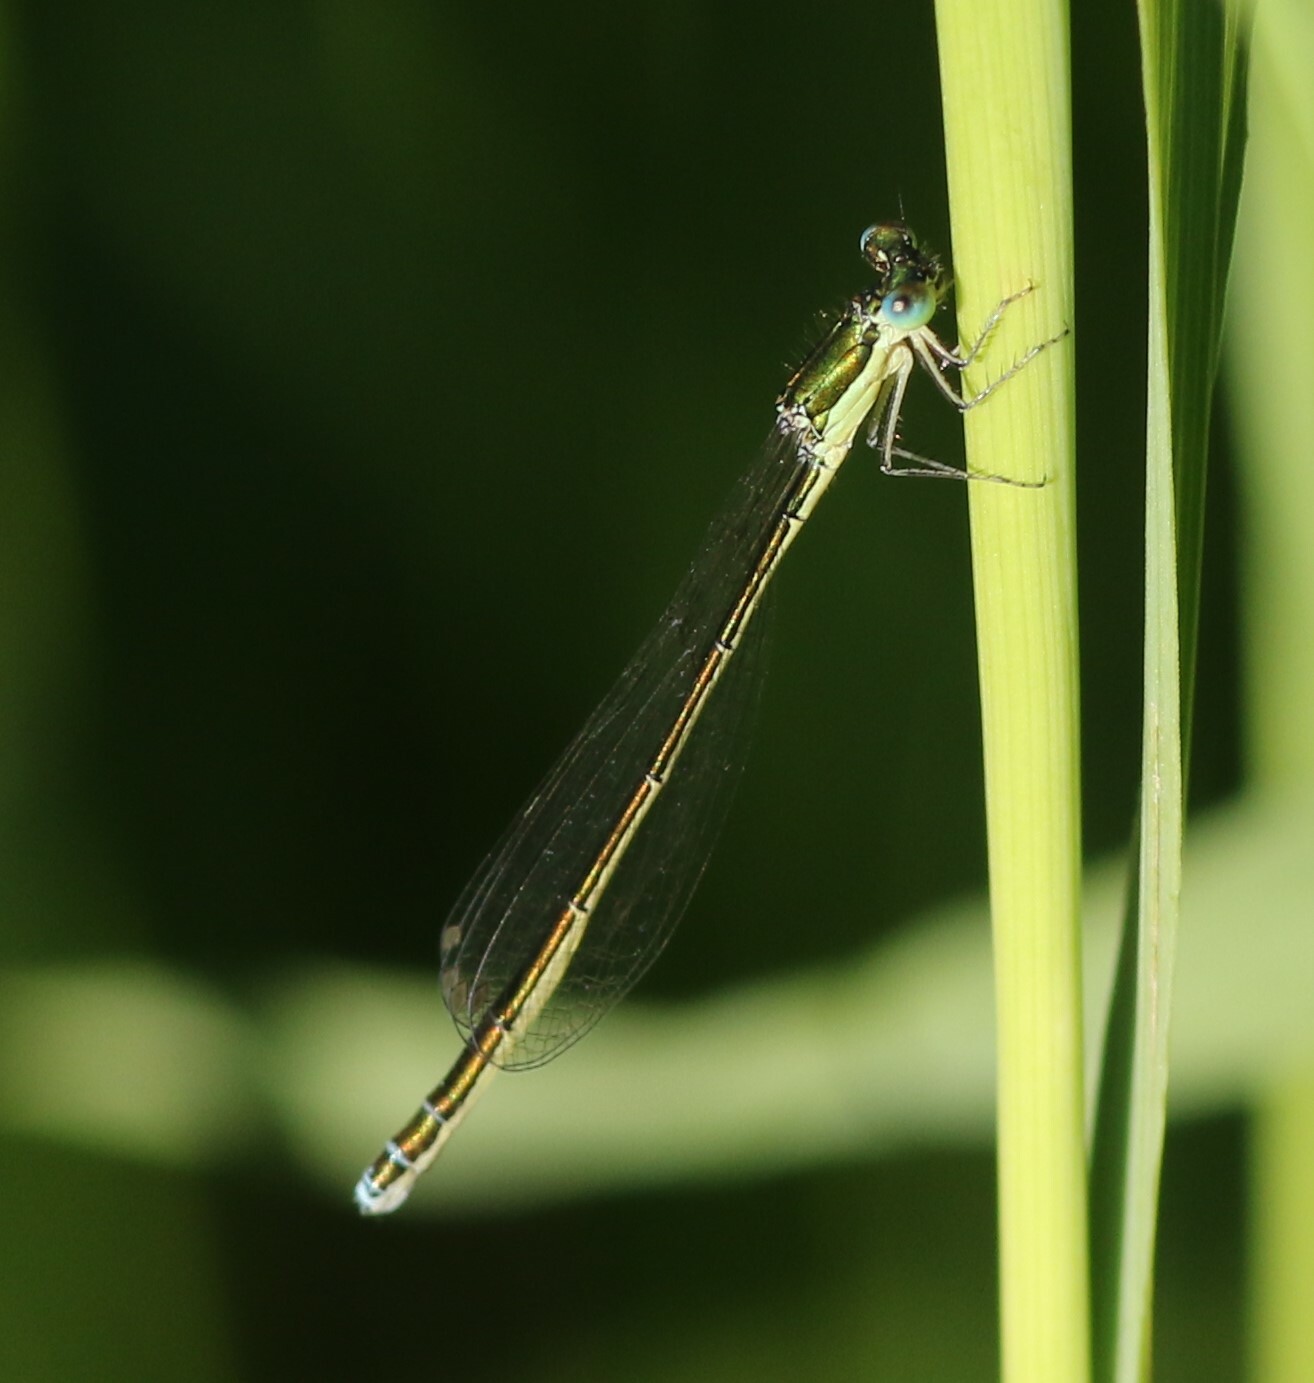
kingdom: Animalia
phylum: Arthropoda
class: Insecta
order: Odonata
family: Coenagrionidae
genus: Nehalennia
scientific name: Nehalennia irene
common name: Sedge sprite
